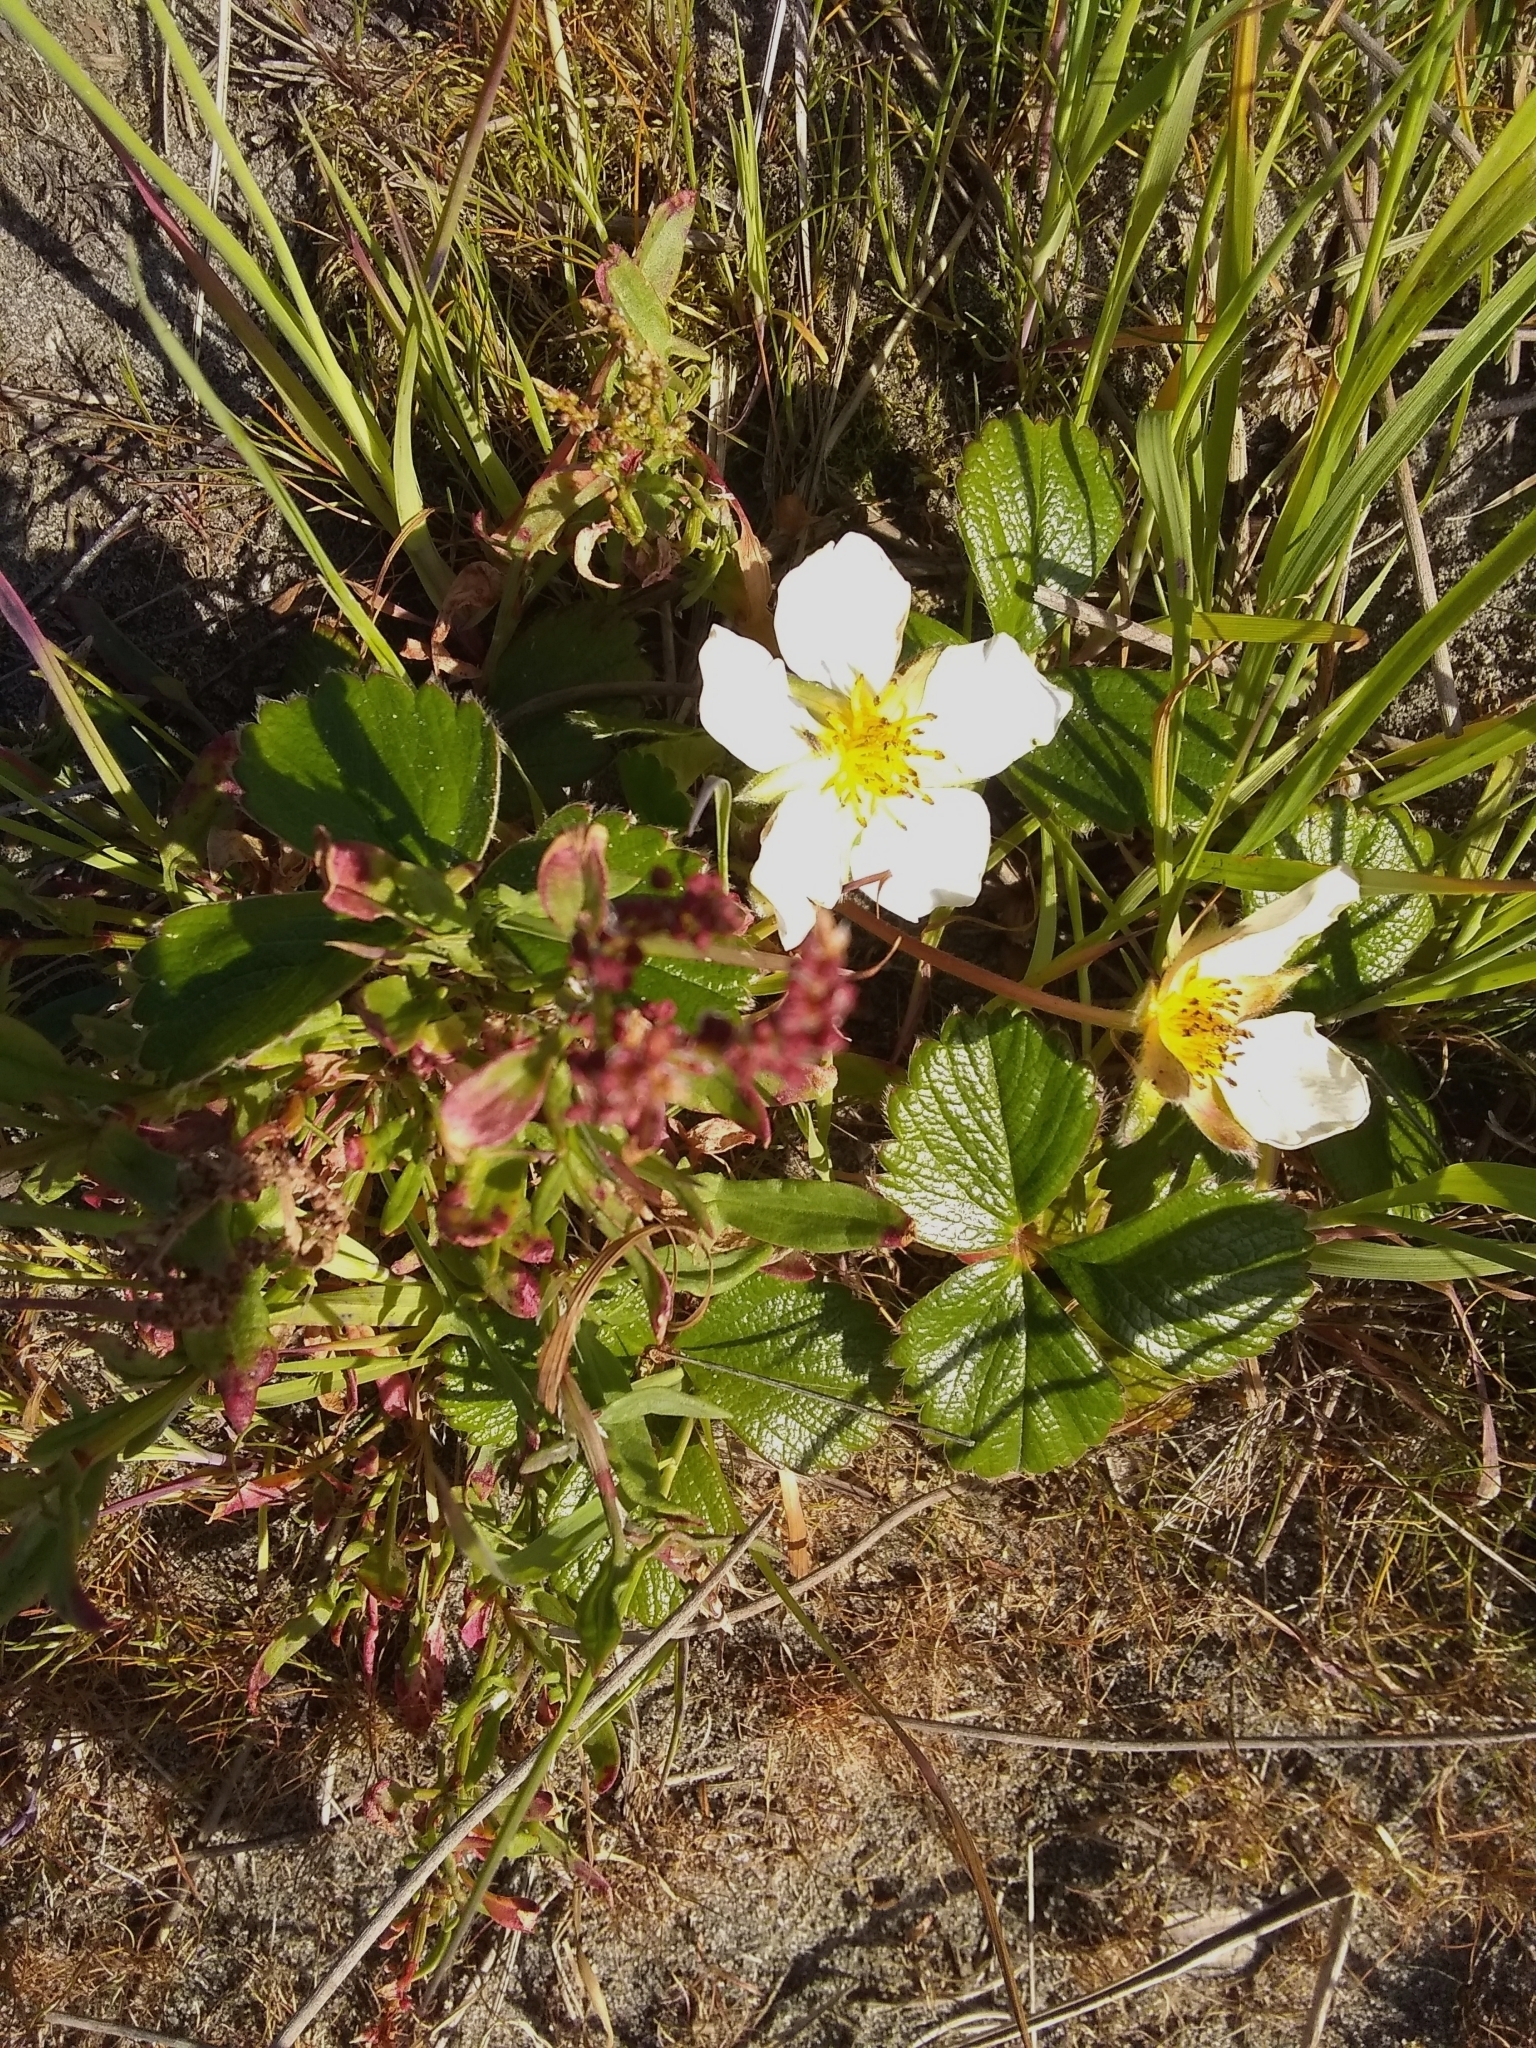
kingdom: Plantae
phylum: Tracheophyta
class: Magnoliopsida
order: Rosales
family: Rosaceae
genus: Fragaria
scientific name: Fragaria chiloensis
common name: Beach strawberry
